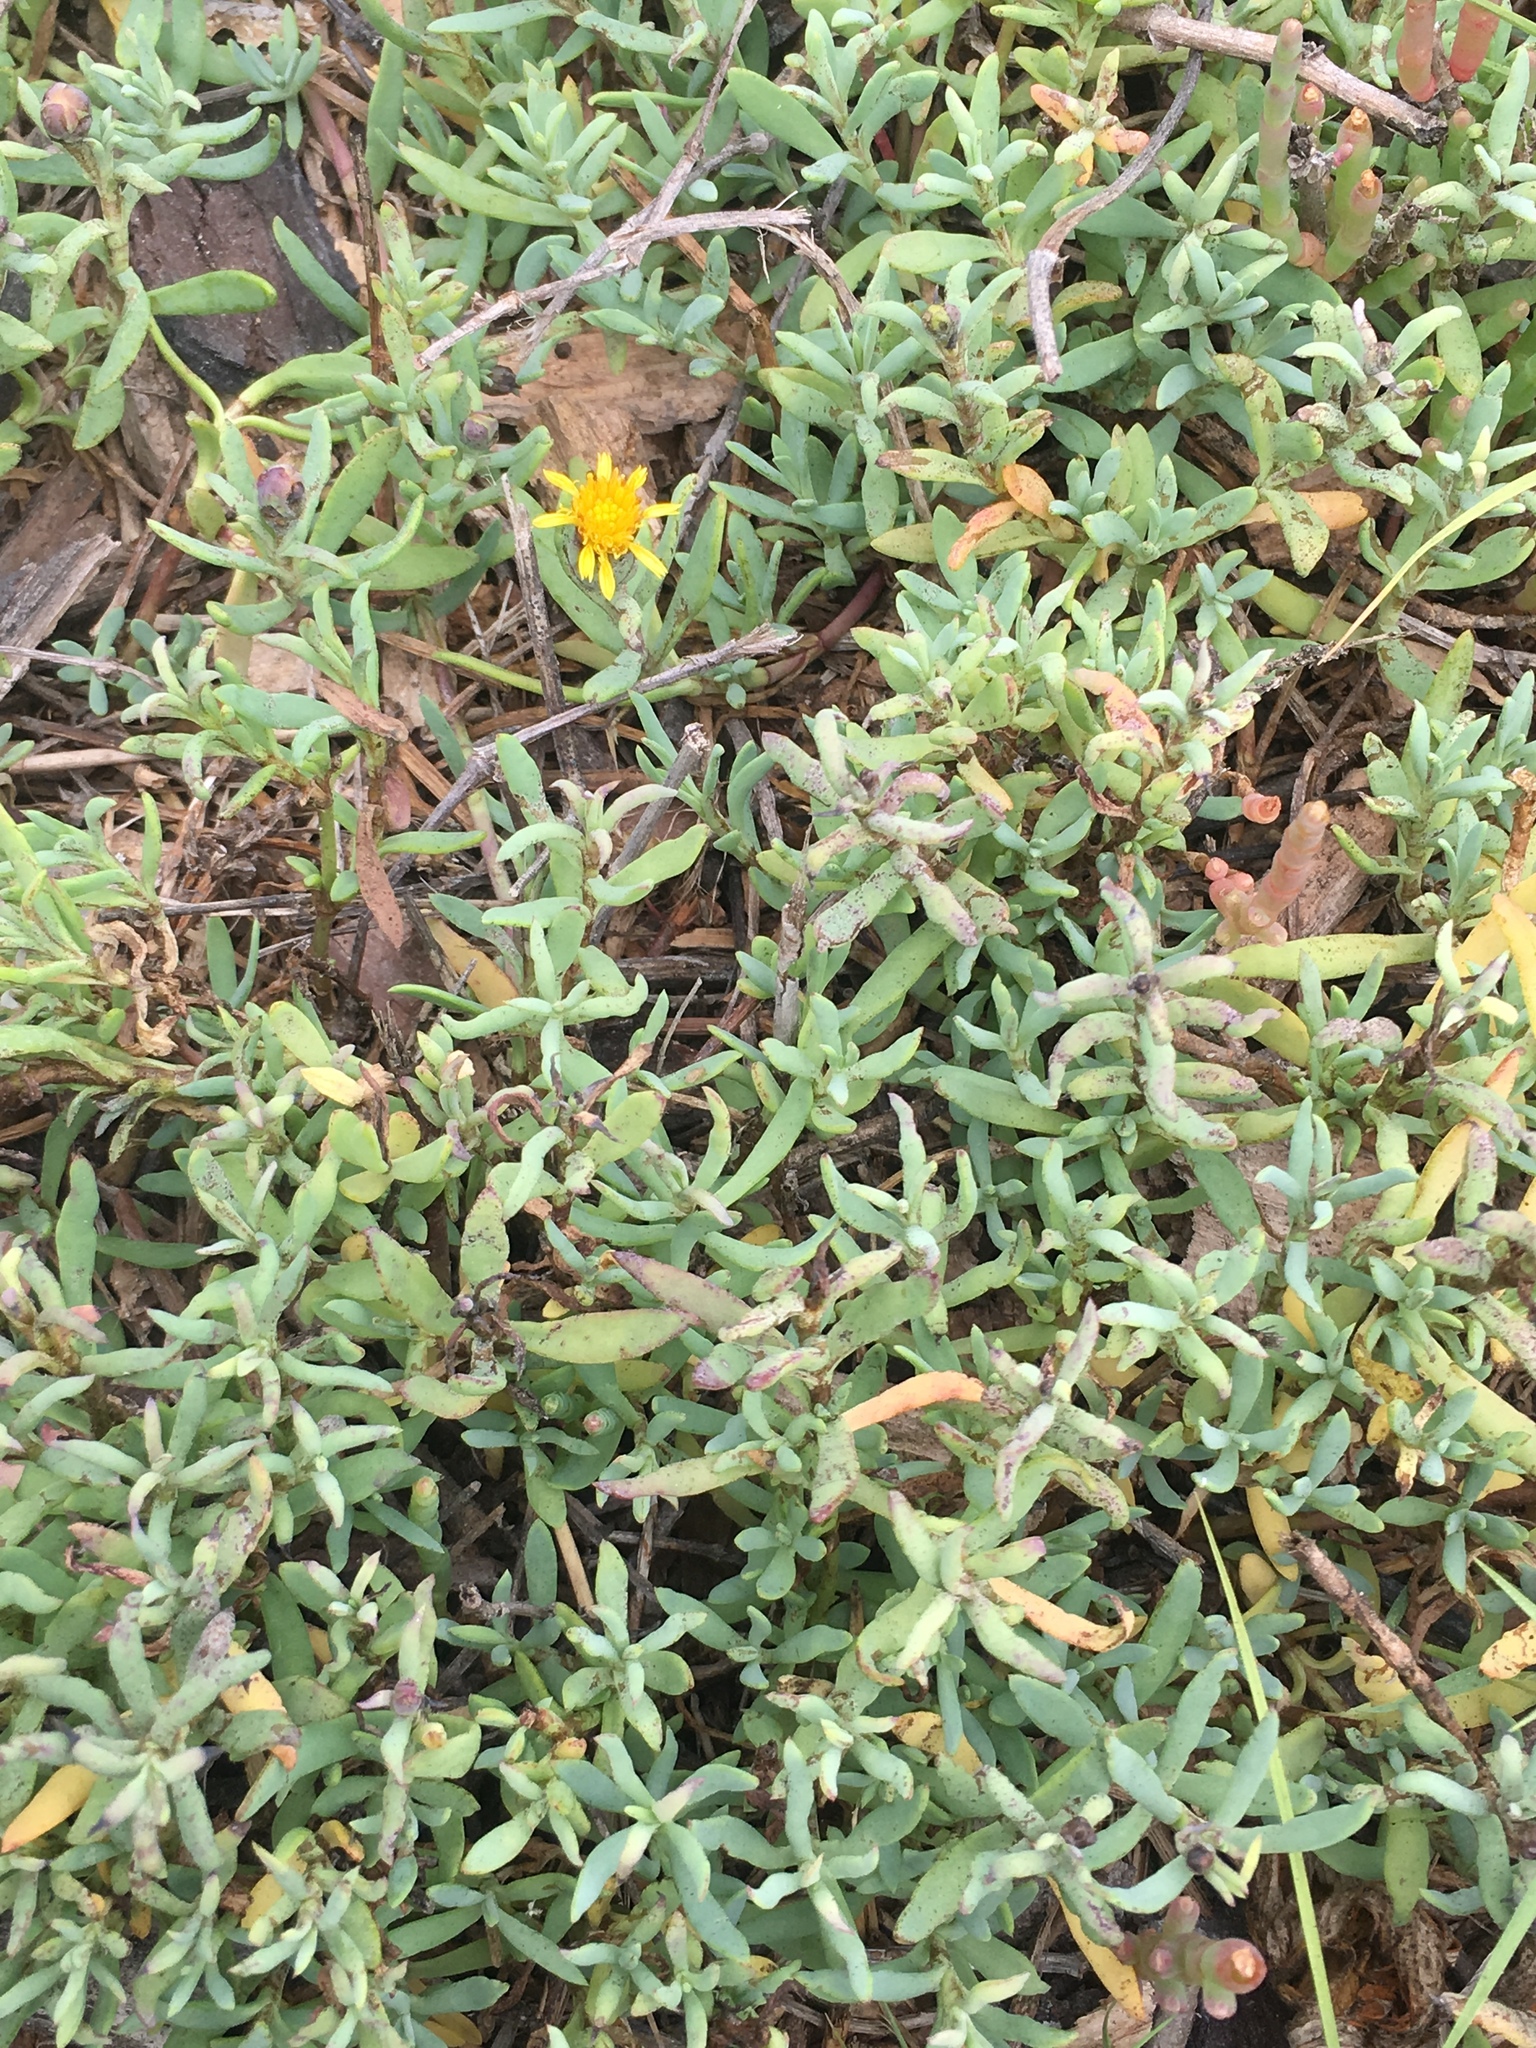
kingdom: Plantae
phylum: Tracheophyta
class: Magnoliopsida
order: Asterales
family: Asteraceae
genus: Jaumea
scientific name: Jaumea carnosa
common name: Fleshy jaumea
